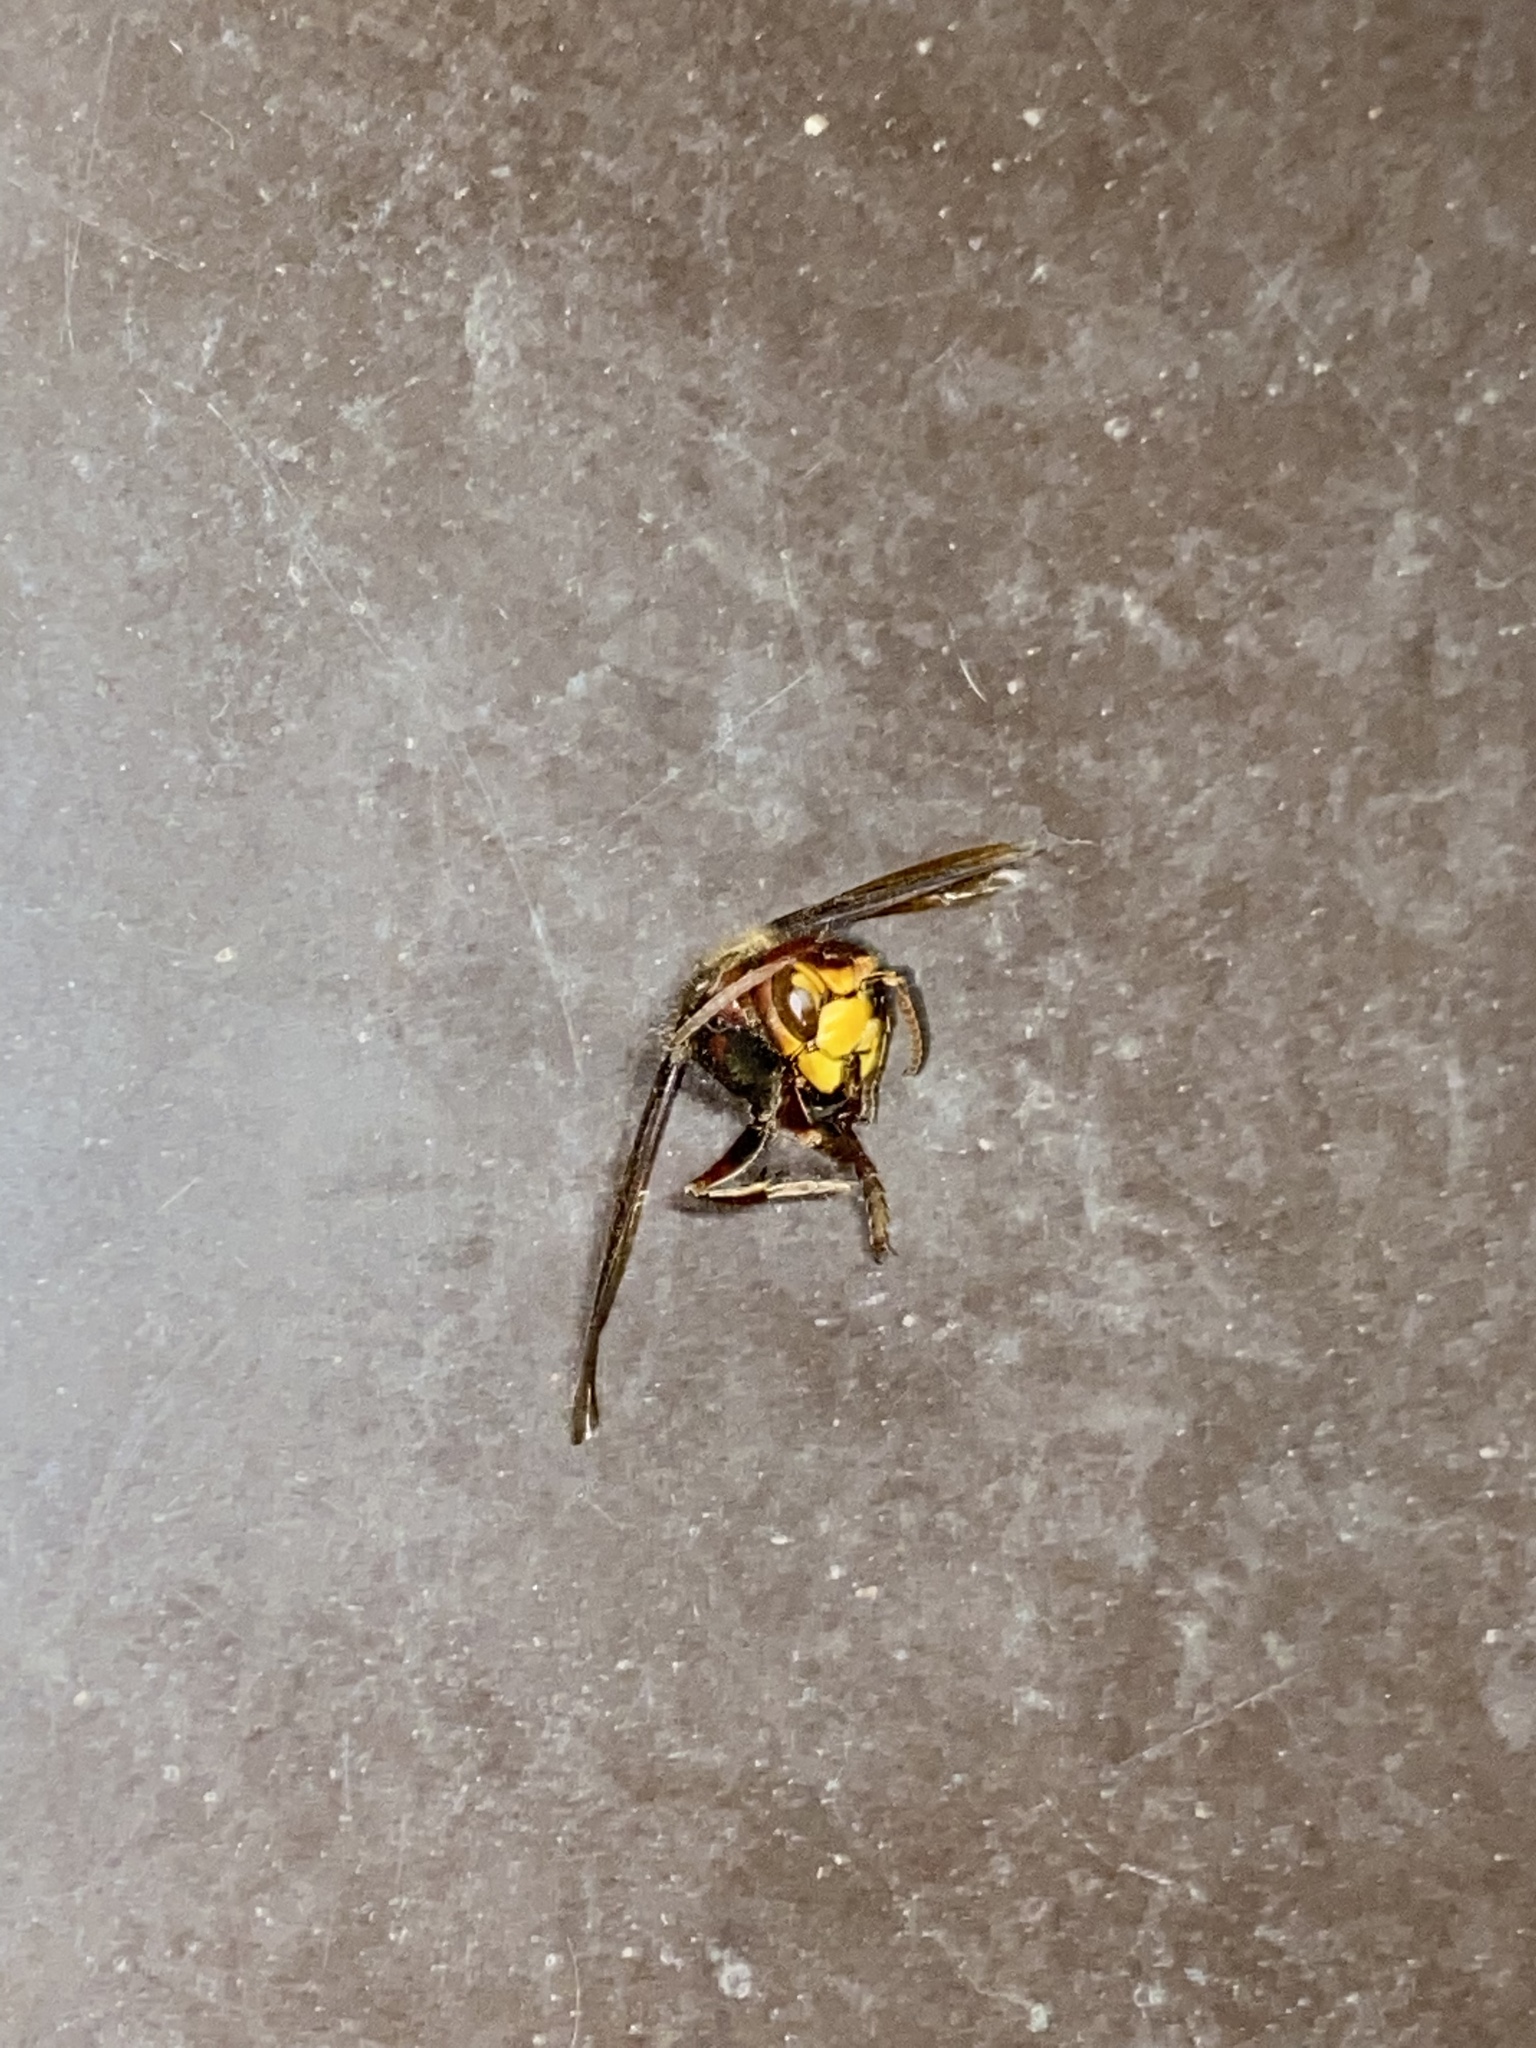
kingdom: Animalia
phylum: Arthropoda
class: Insecta
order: Hymenoptera
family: Vespidae
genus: Vespa
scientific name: Vespa crabro
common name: Hornet
